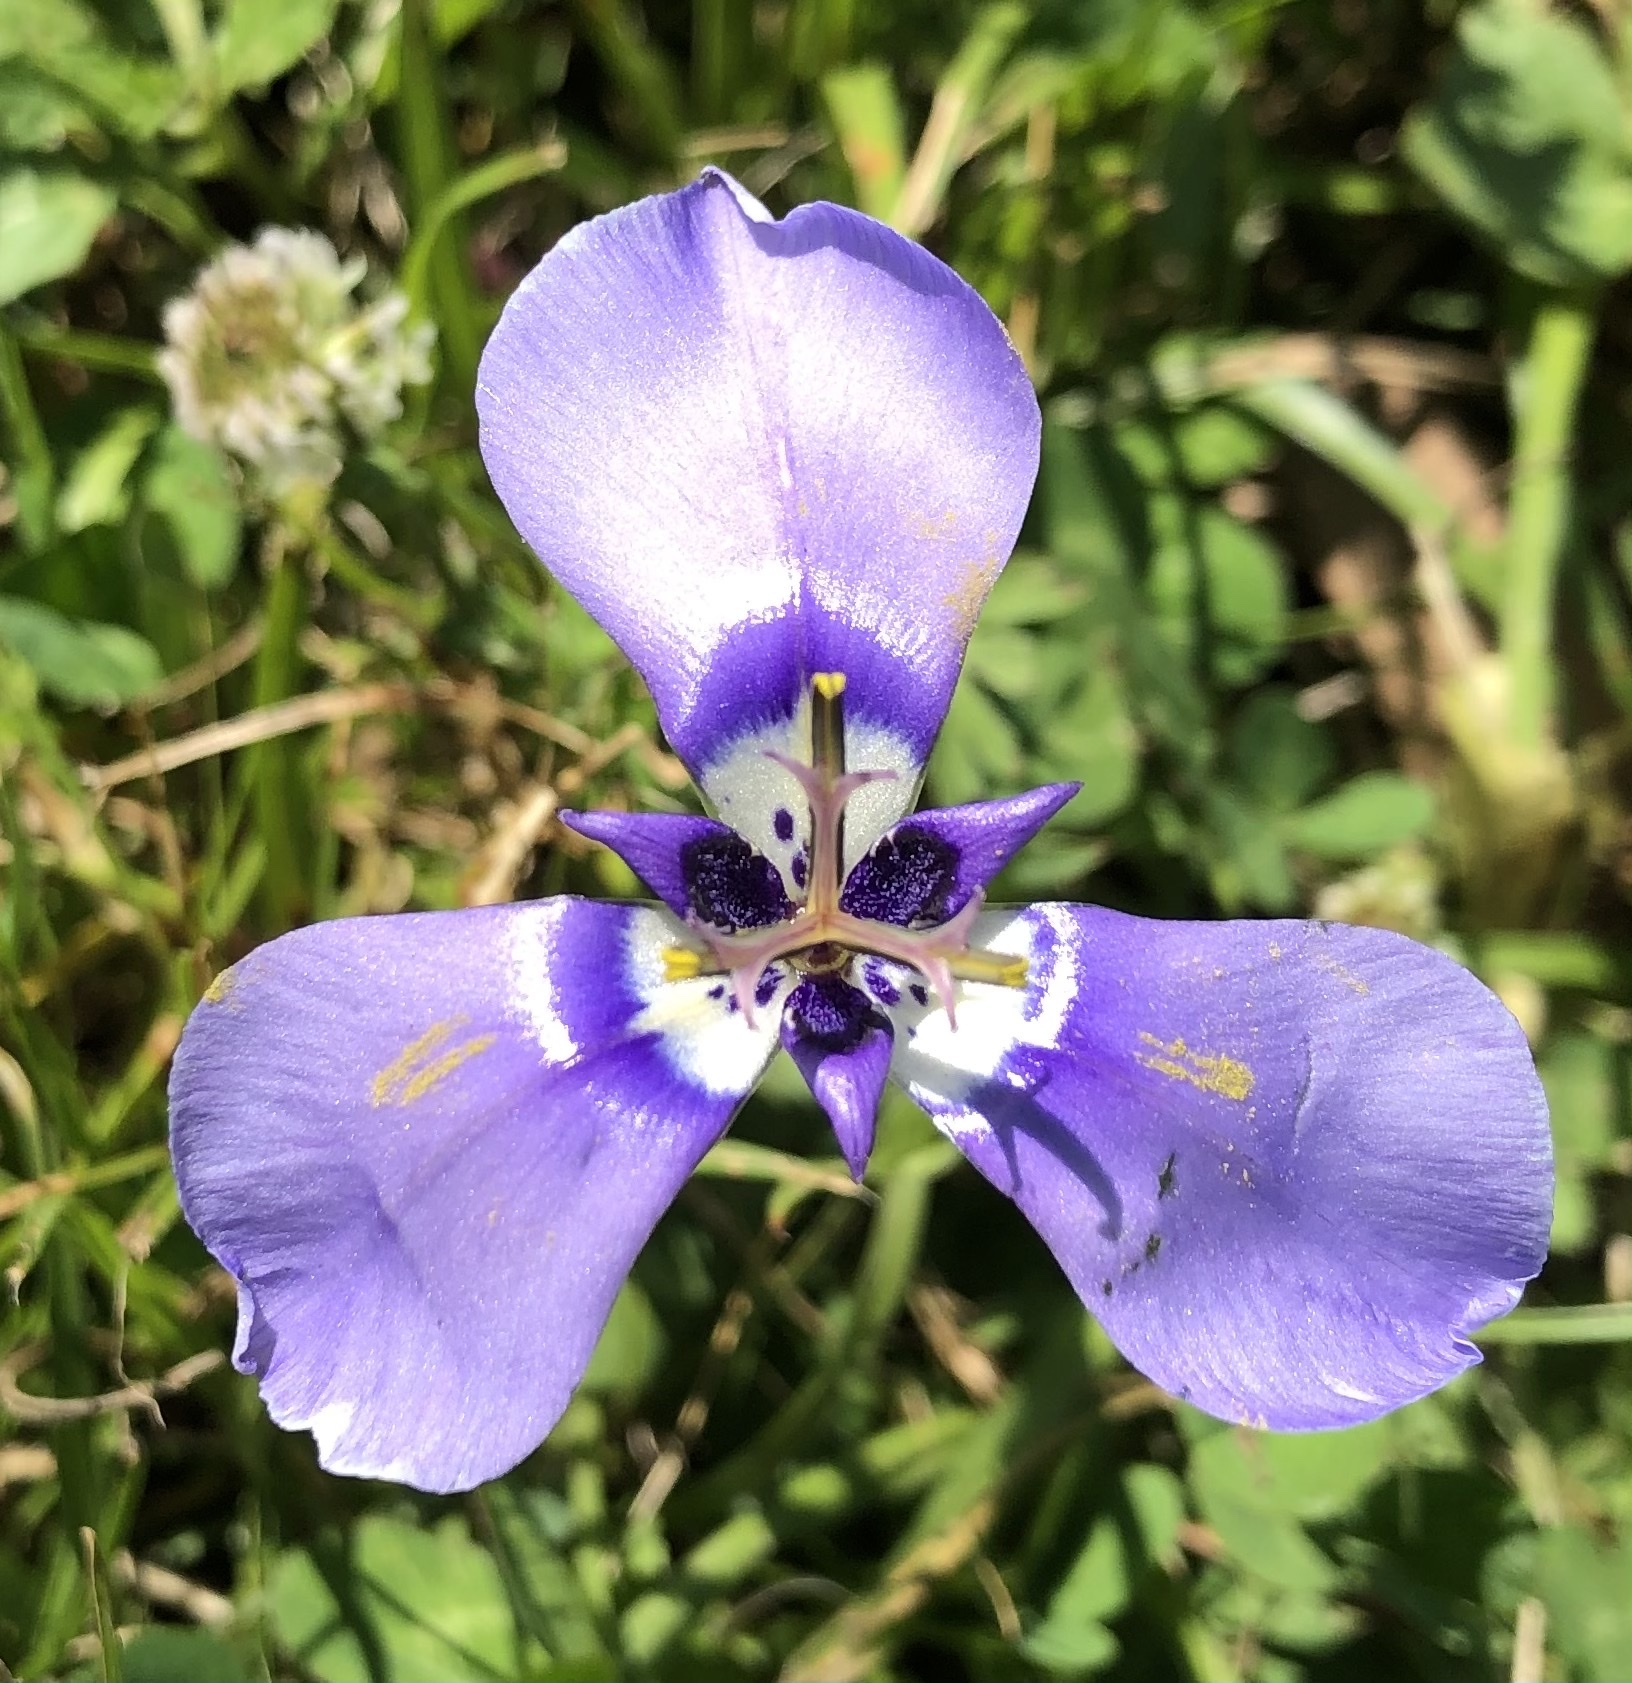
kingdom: Plantae
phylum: Tracheophyta
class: Liliopsida
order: Asparagales
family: Iridaceae
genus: Herbertia
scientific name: Herbertia lahue
